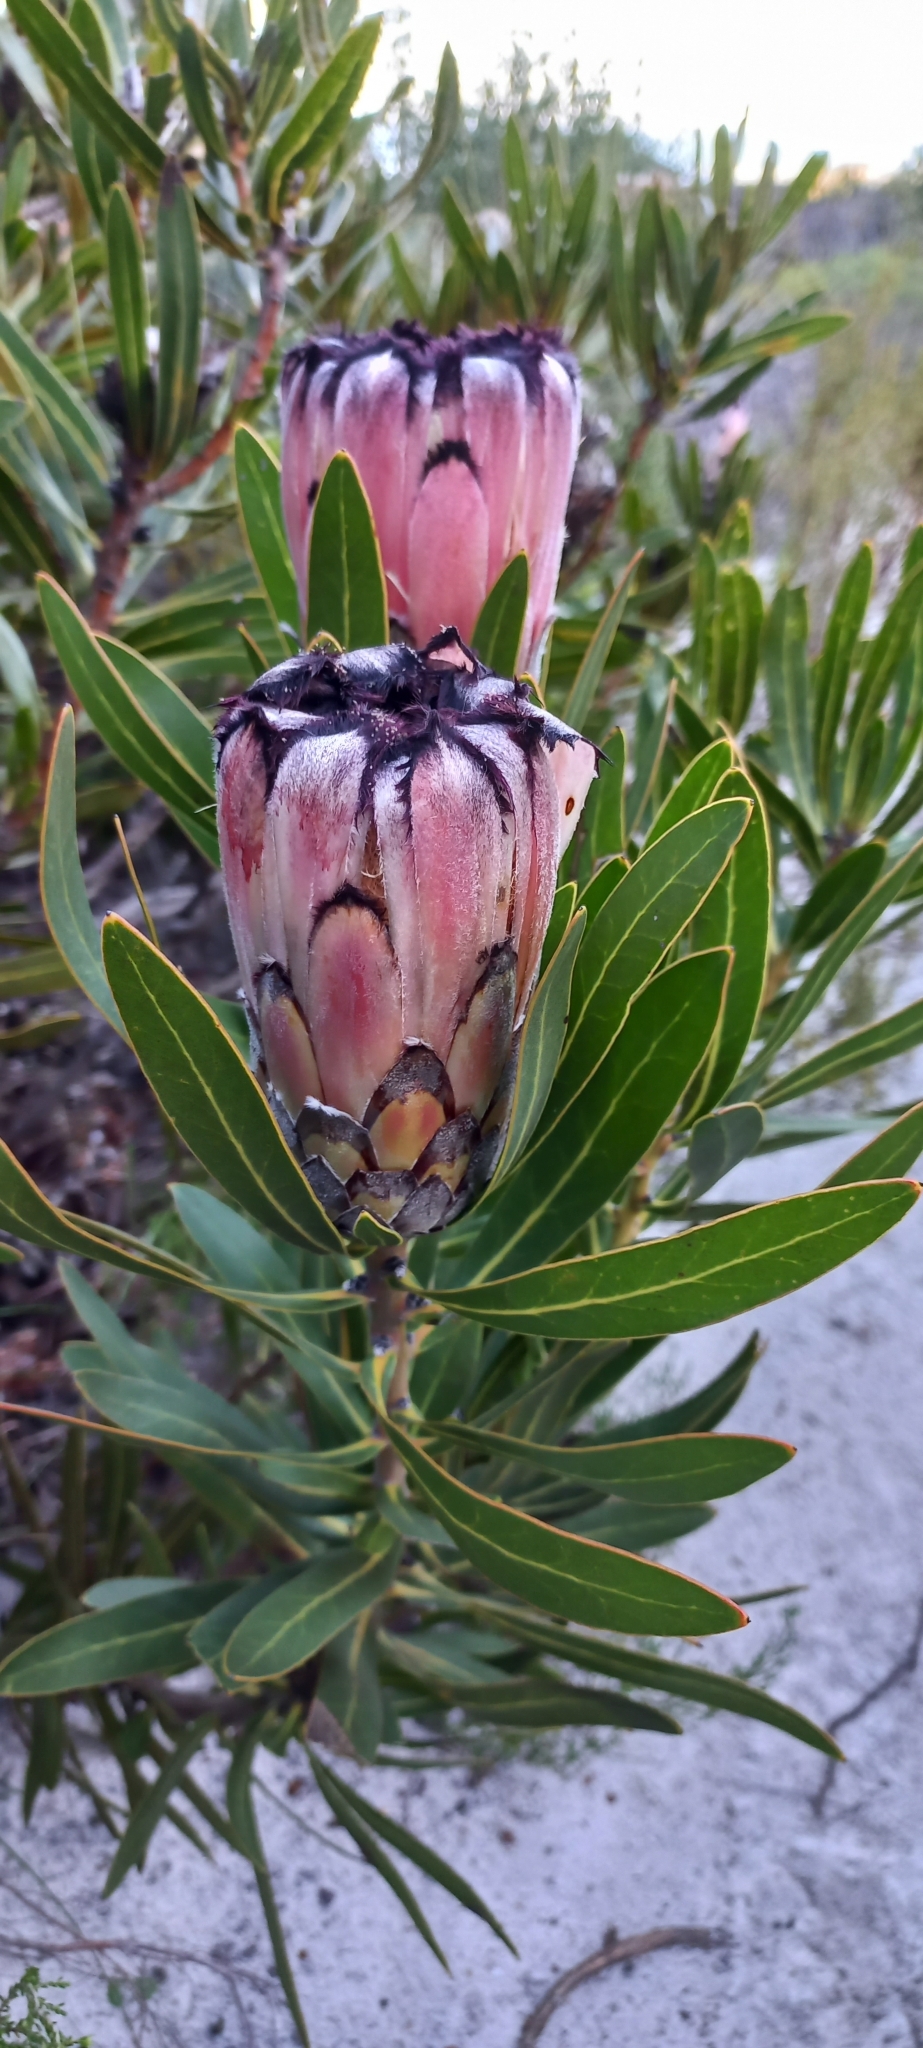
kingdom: Plantae
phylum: Tracheophyta
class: Magnoliopsida
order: Proteales
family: Proteaceae
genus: Protea
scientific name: Protea neriifolia
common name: Blue sugarbush
